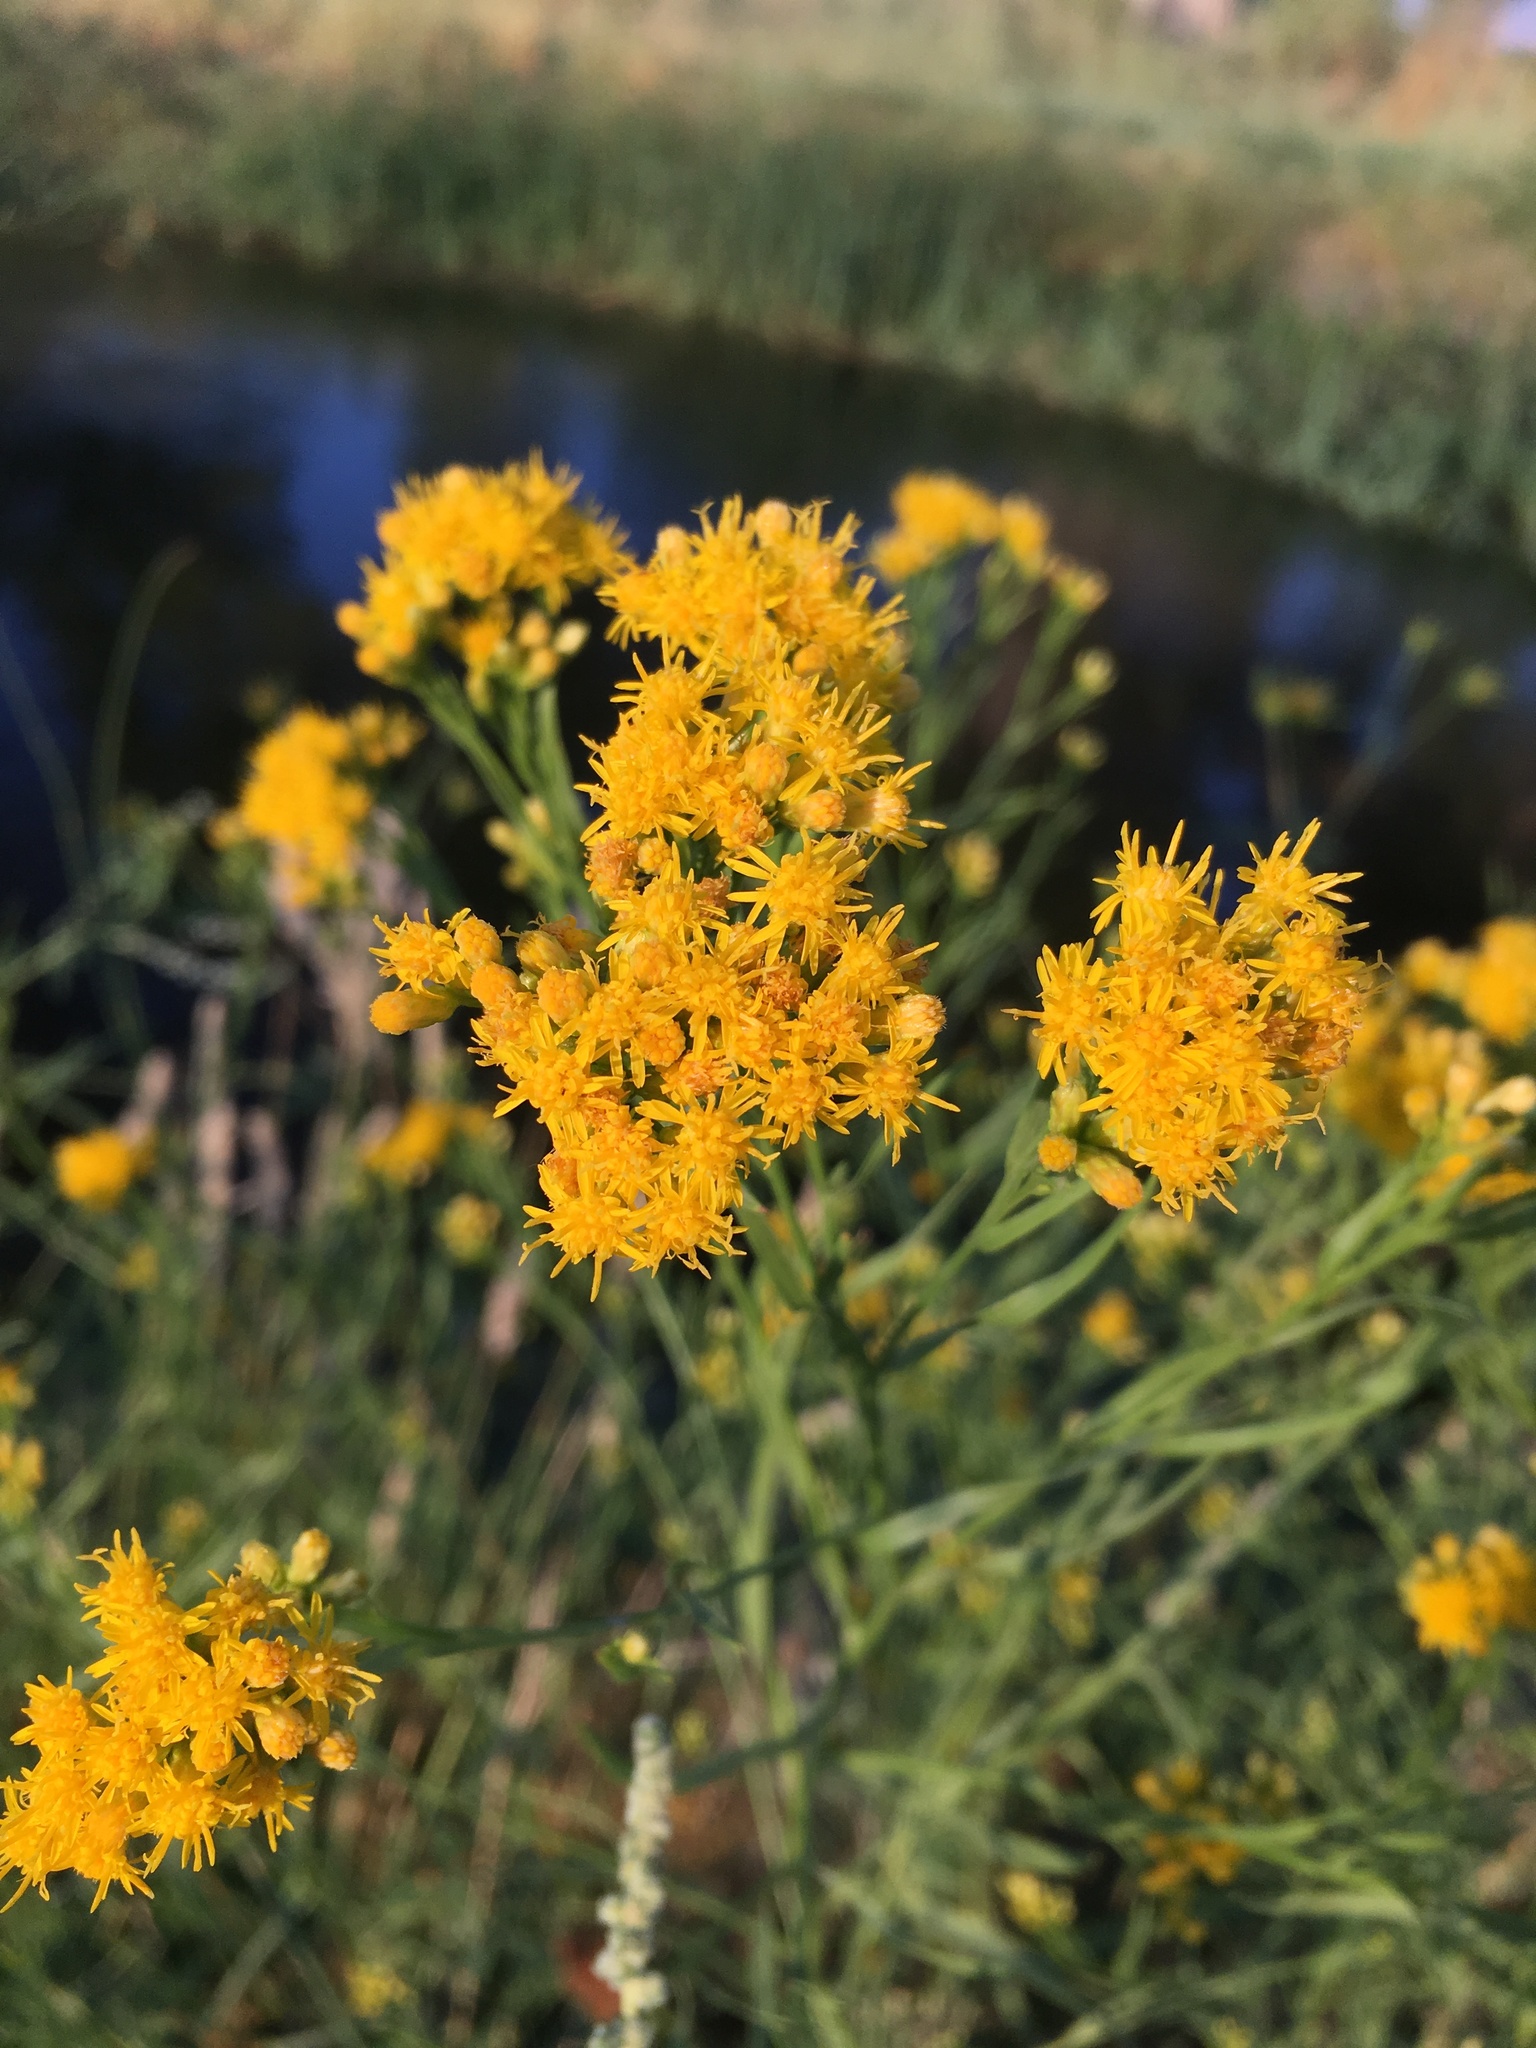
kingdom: Plantae
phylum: Tracheophyta
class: Magnoliopsida
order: Asterales
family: Asteraceae
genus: Euthamia
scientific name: Euthamia occidentalis
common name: Western goldentop
